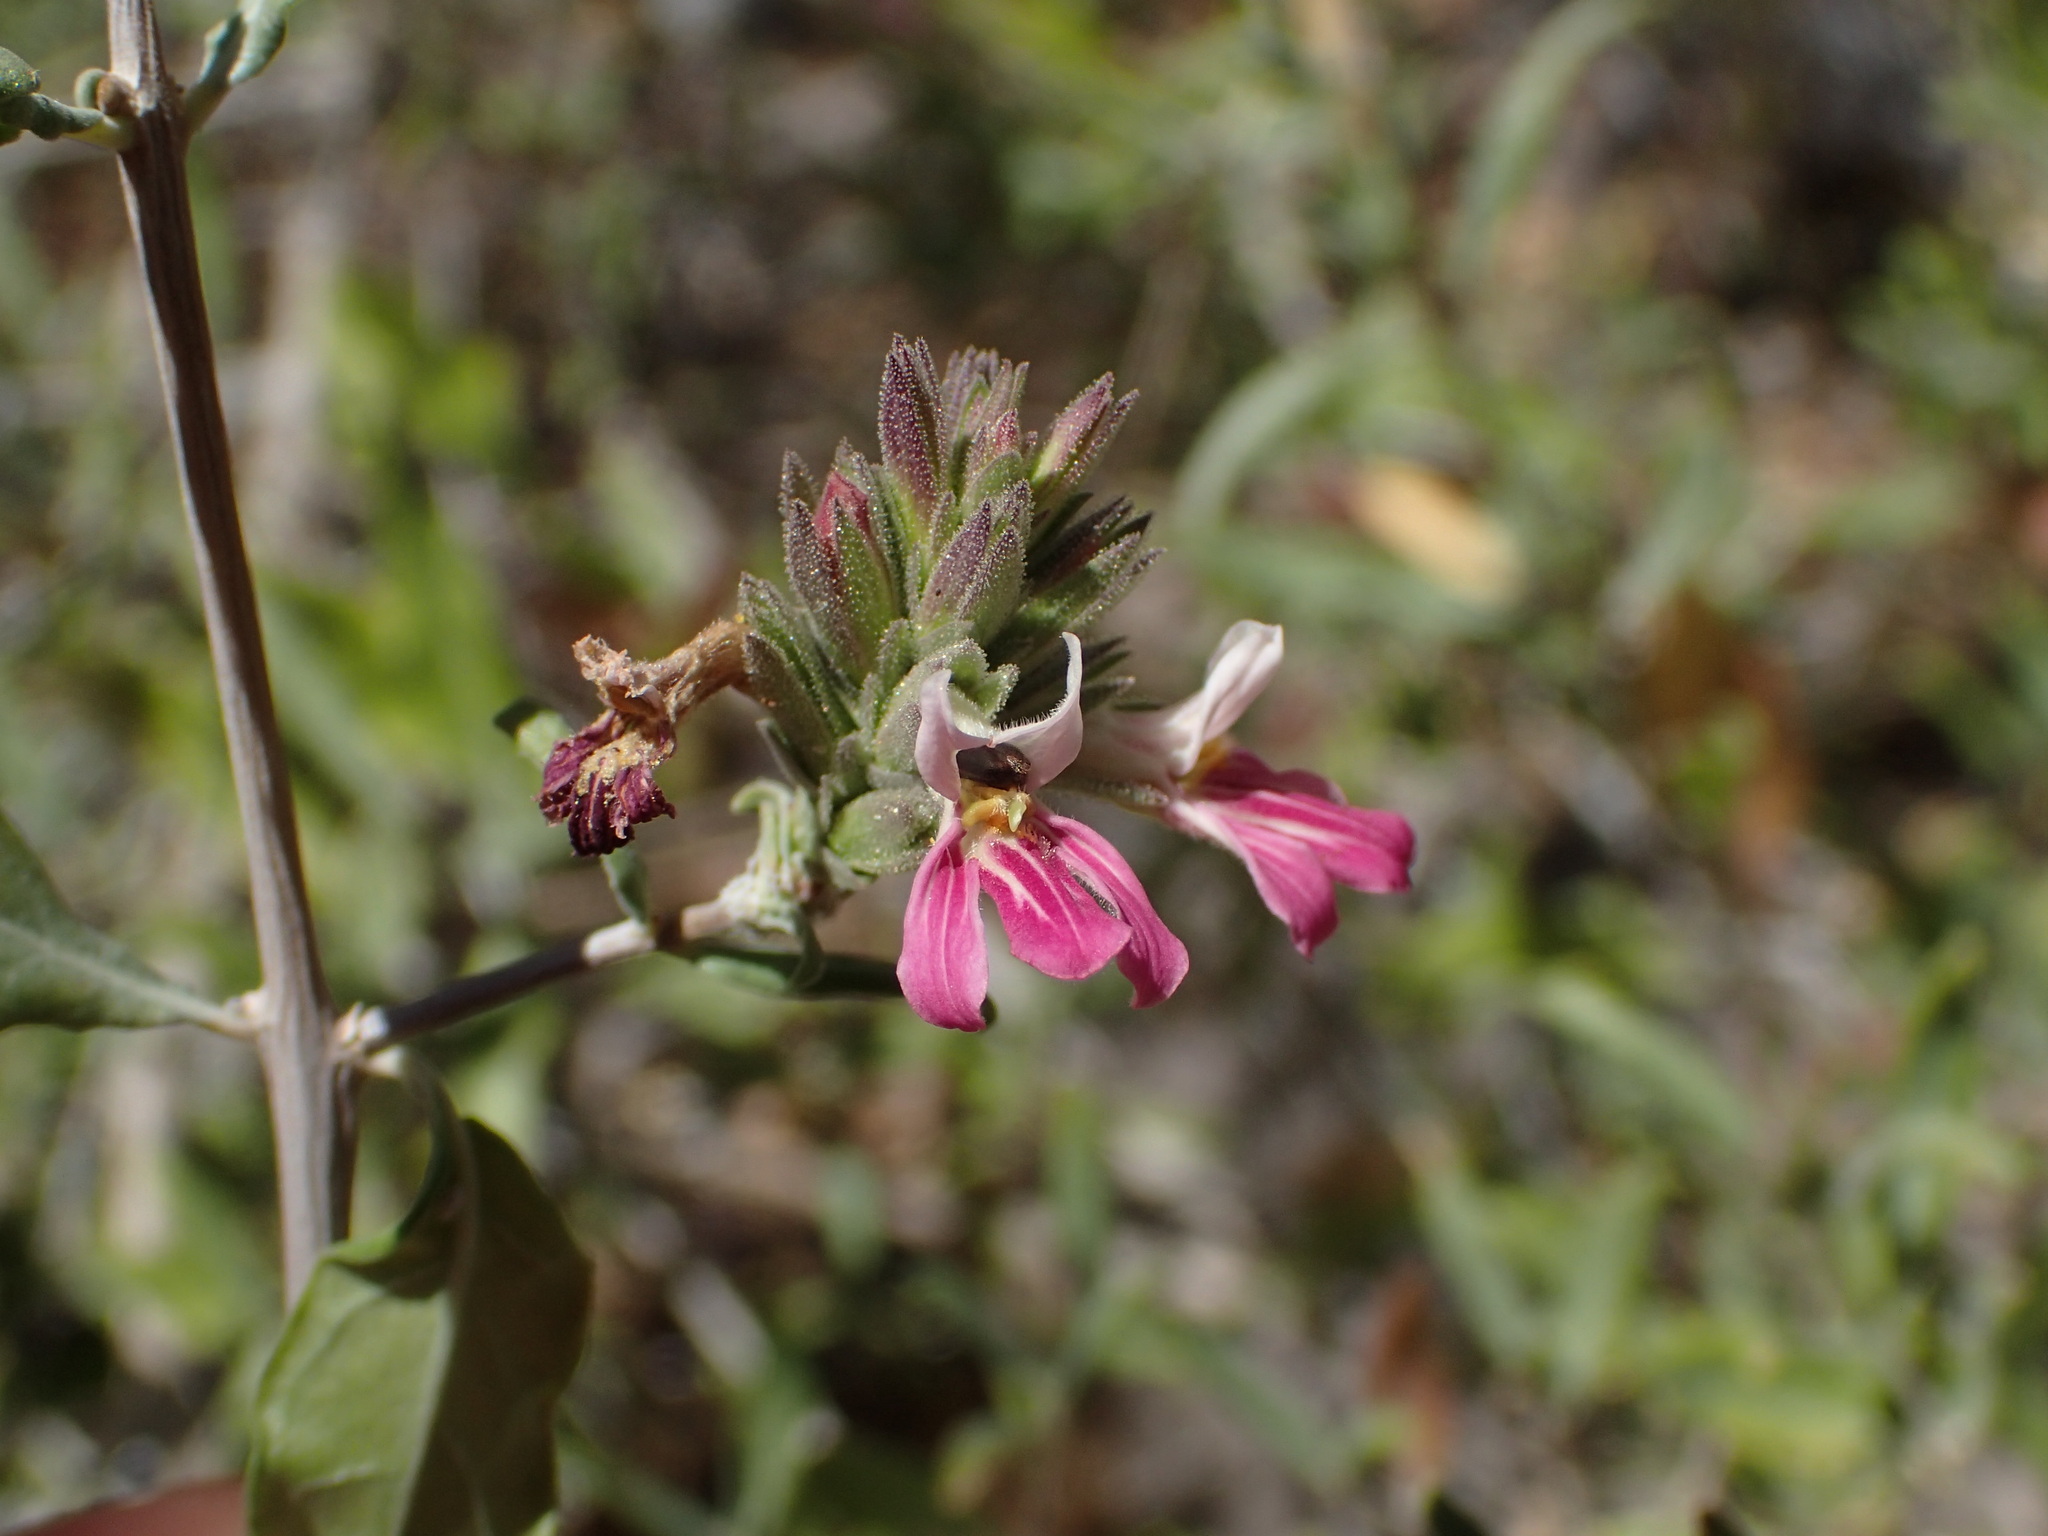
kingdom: Plantae
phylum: Tracheophyta
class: Magnoliopsida
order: Lamiales
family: Acanthaceae
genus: Holographis
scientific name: Holographis virgata
